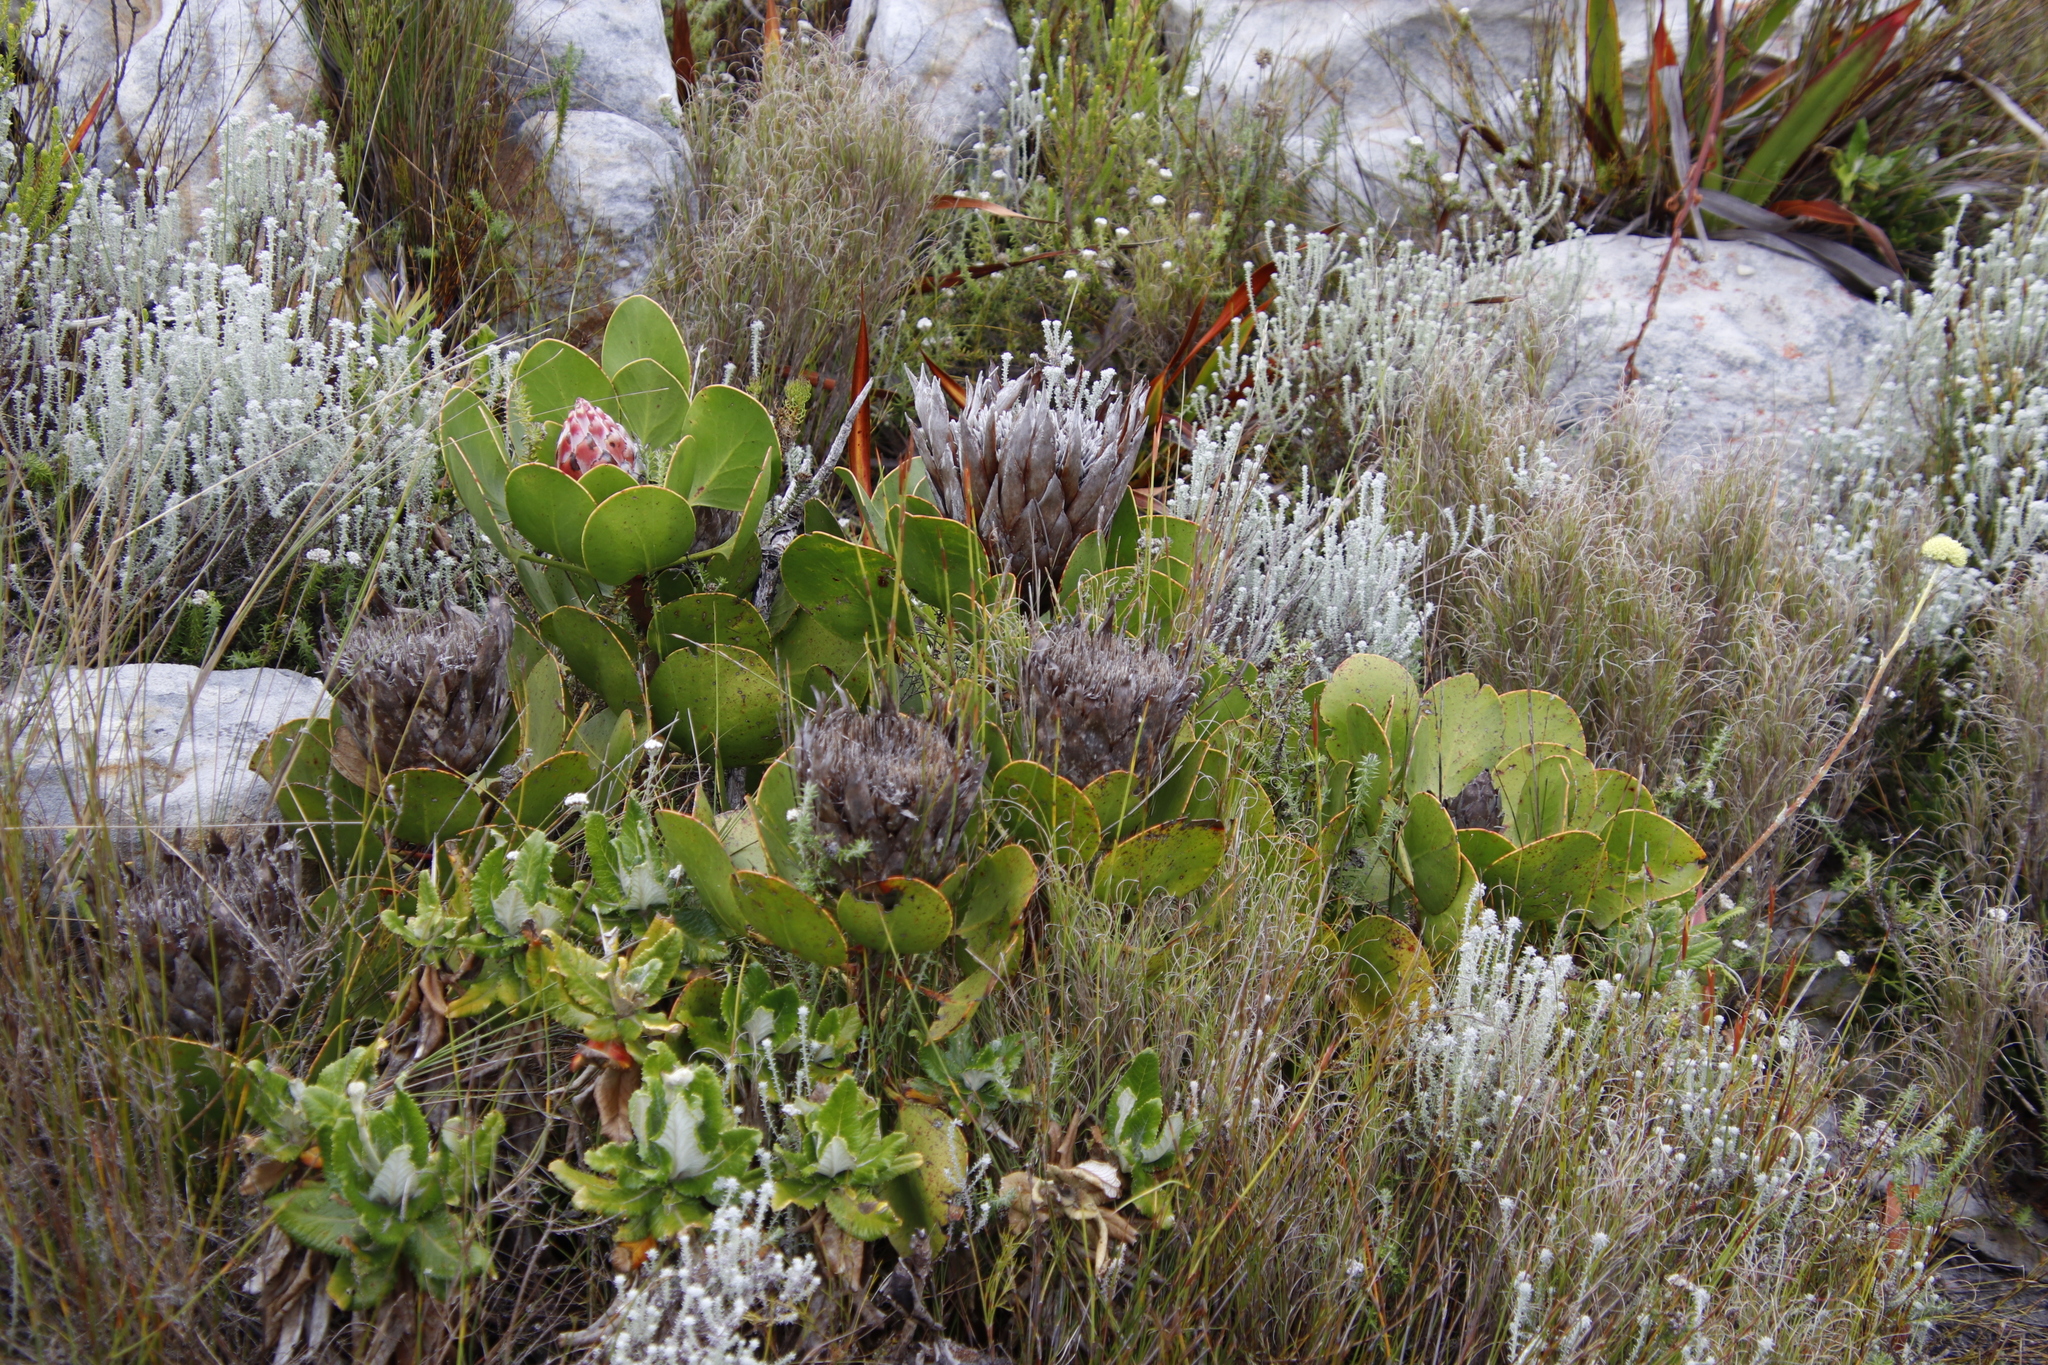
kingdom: Plantae
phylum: Tracheophyta
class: Magnoliopsida
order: Proteales
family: Proteaceae
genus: Protea
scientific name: Protea cynaroides
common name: King protea
